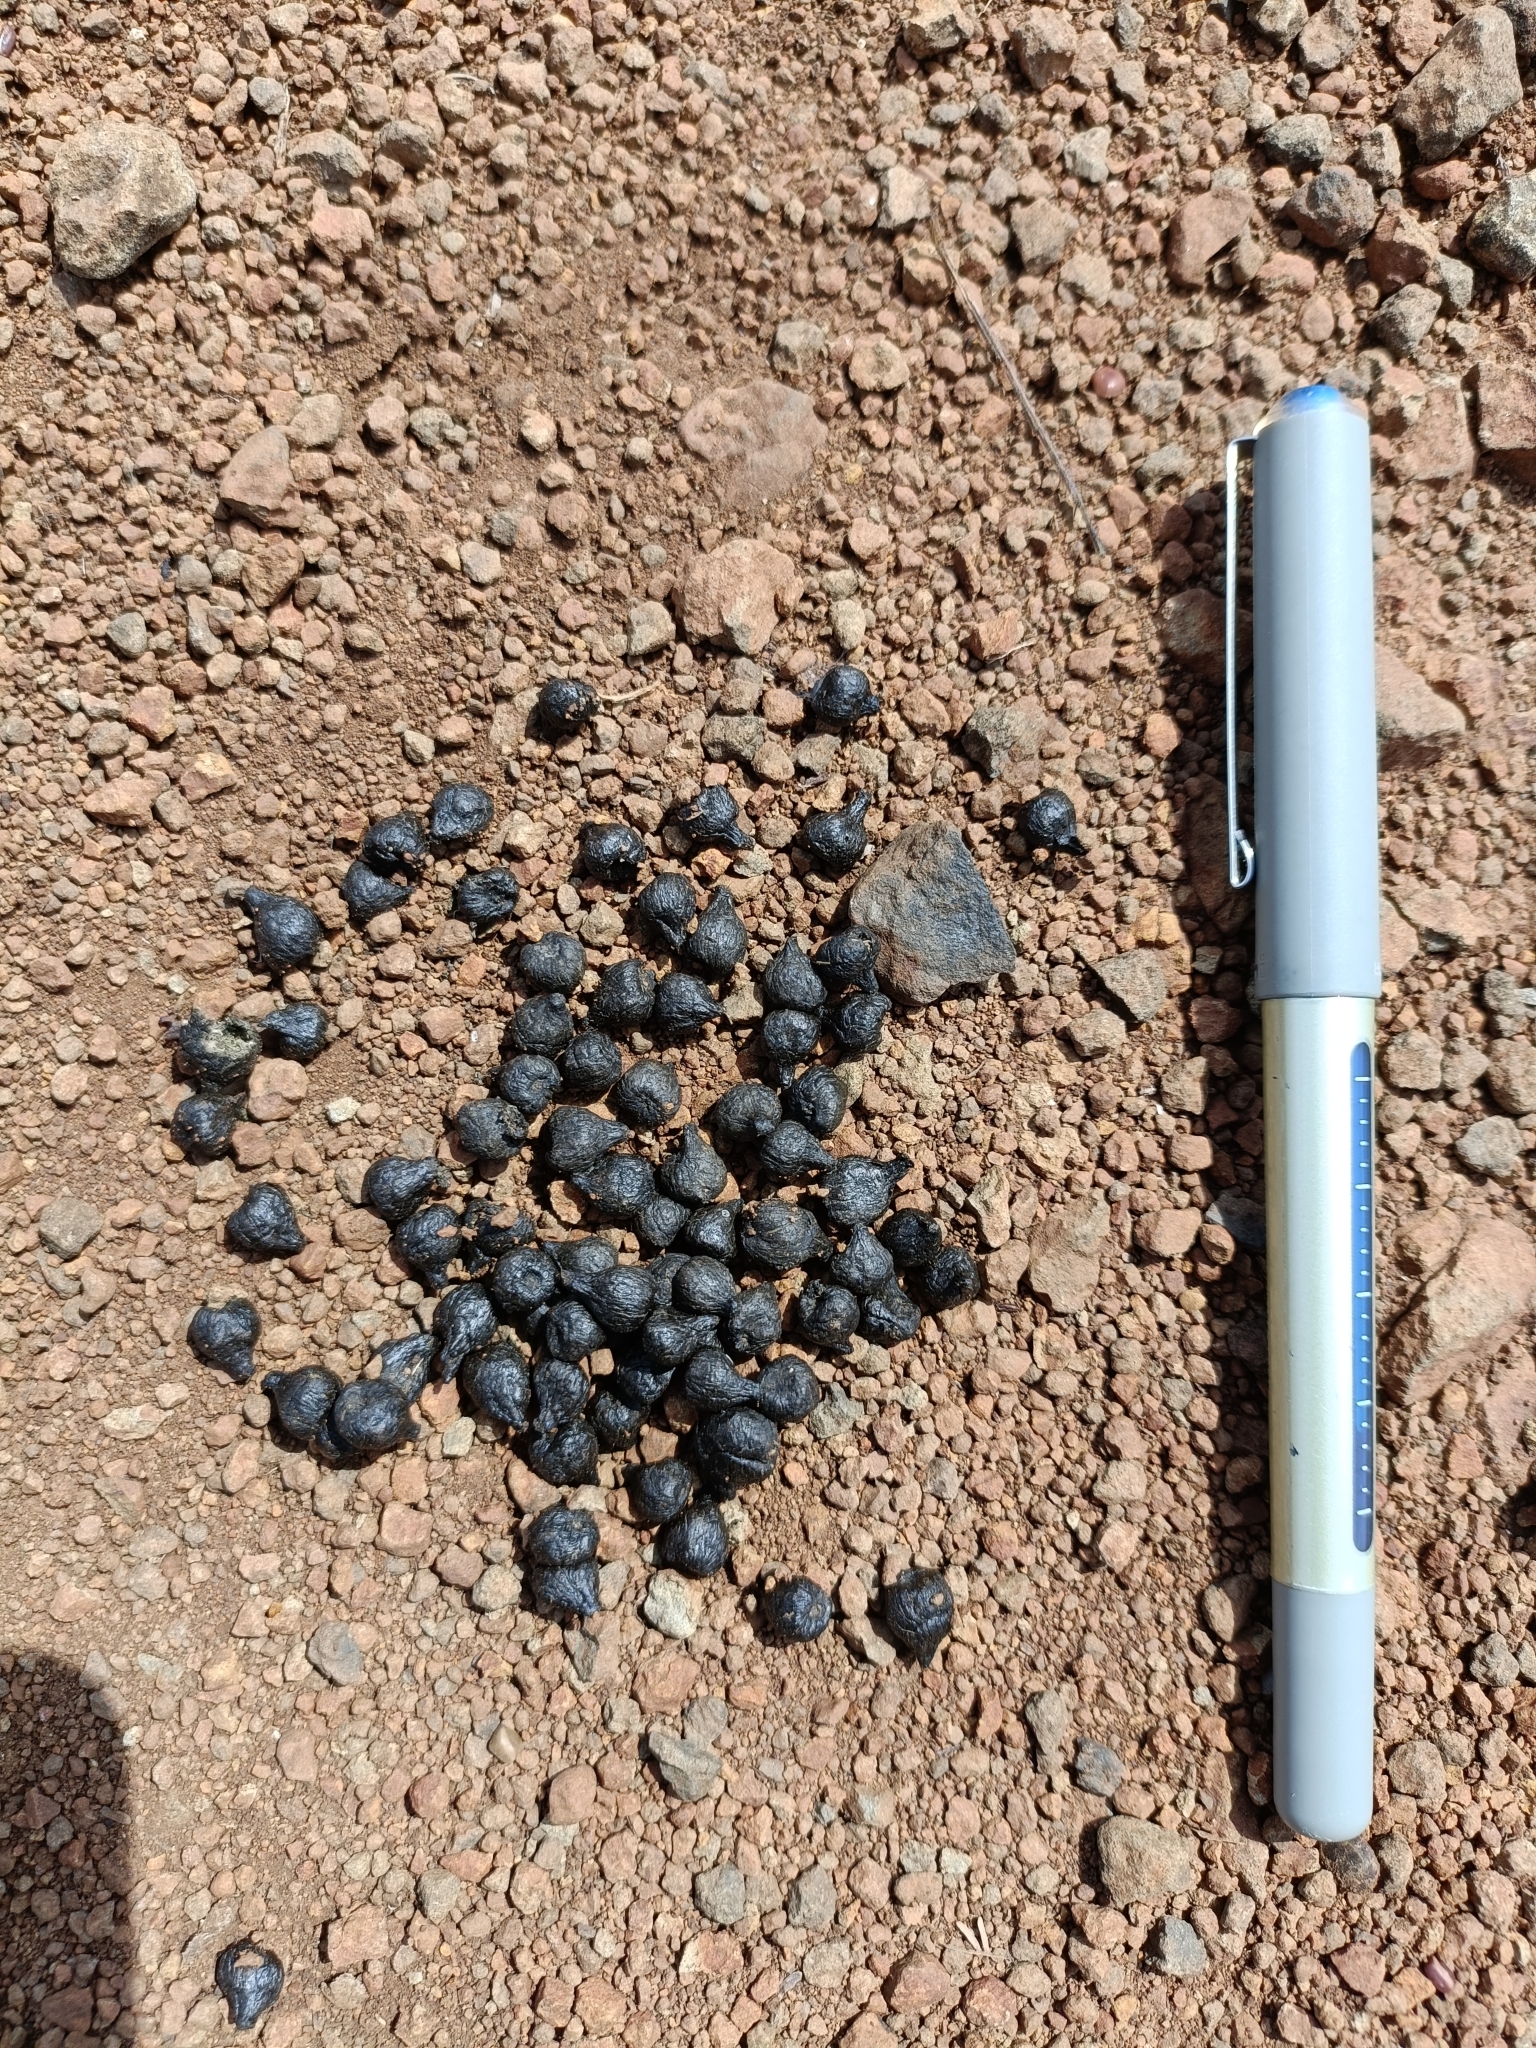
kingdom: Animalia
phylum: Chordata
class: Mammalia
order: Artiodactyla
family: Bovidae
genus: Gazella
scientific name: Gazella bennettii
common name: Indian gazelle
